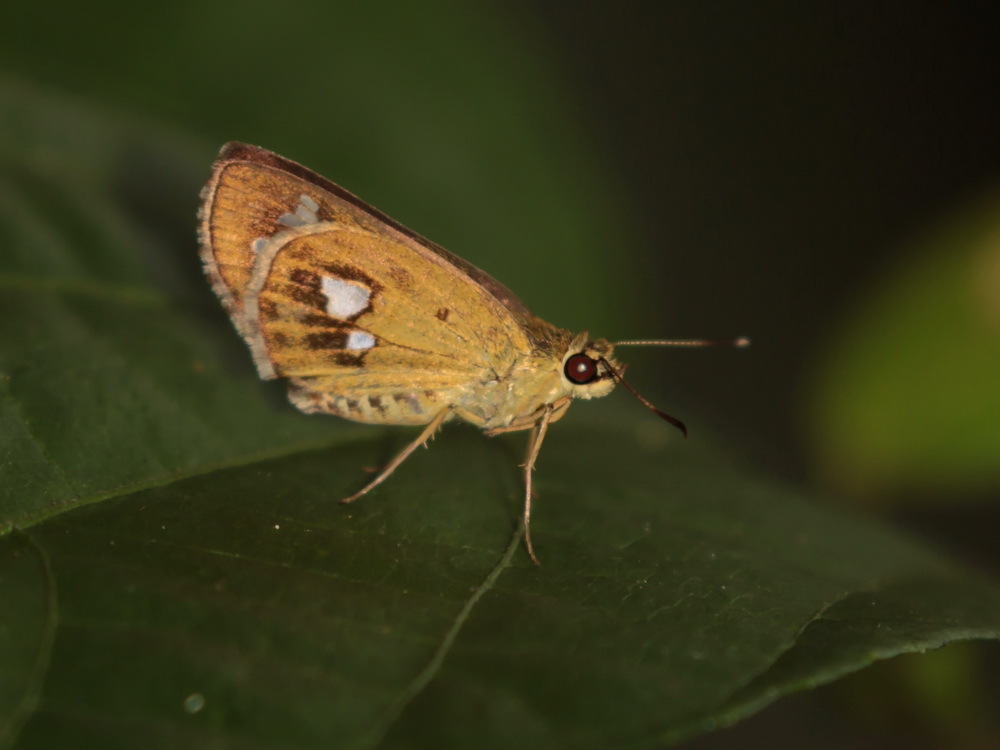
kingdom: Animalia
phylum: Arthropoda
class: Insecta
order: Lepidoptera
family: Hesperiidae
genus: Scobura
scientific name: Scobura isota
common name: Swinhoe's forest bob
